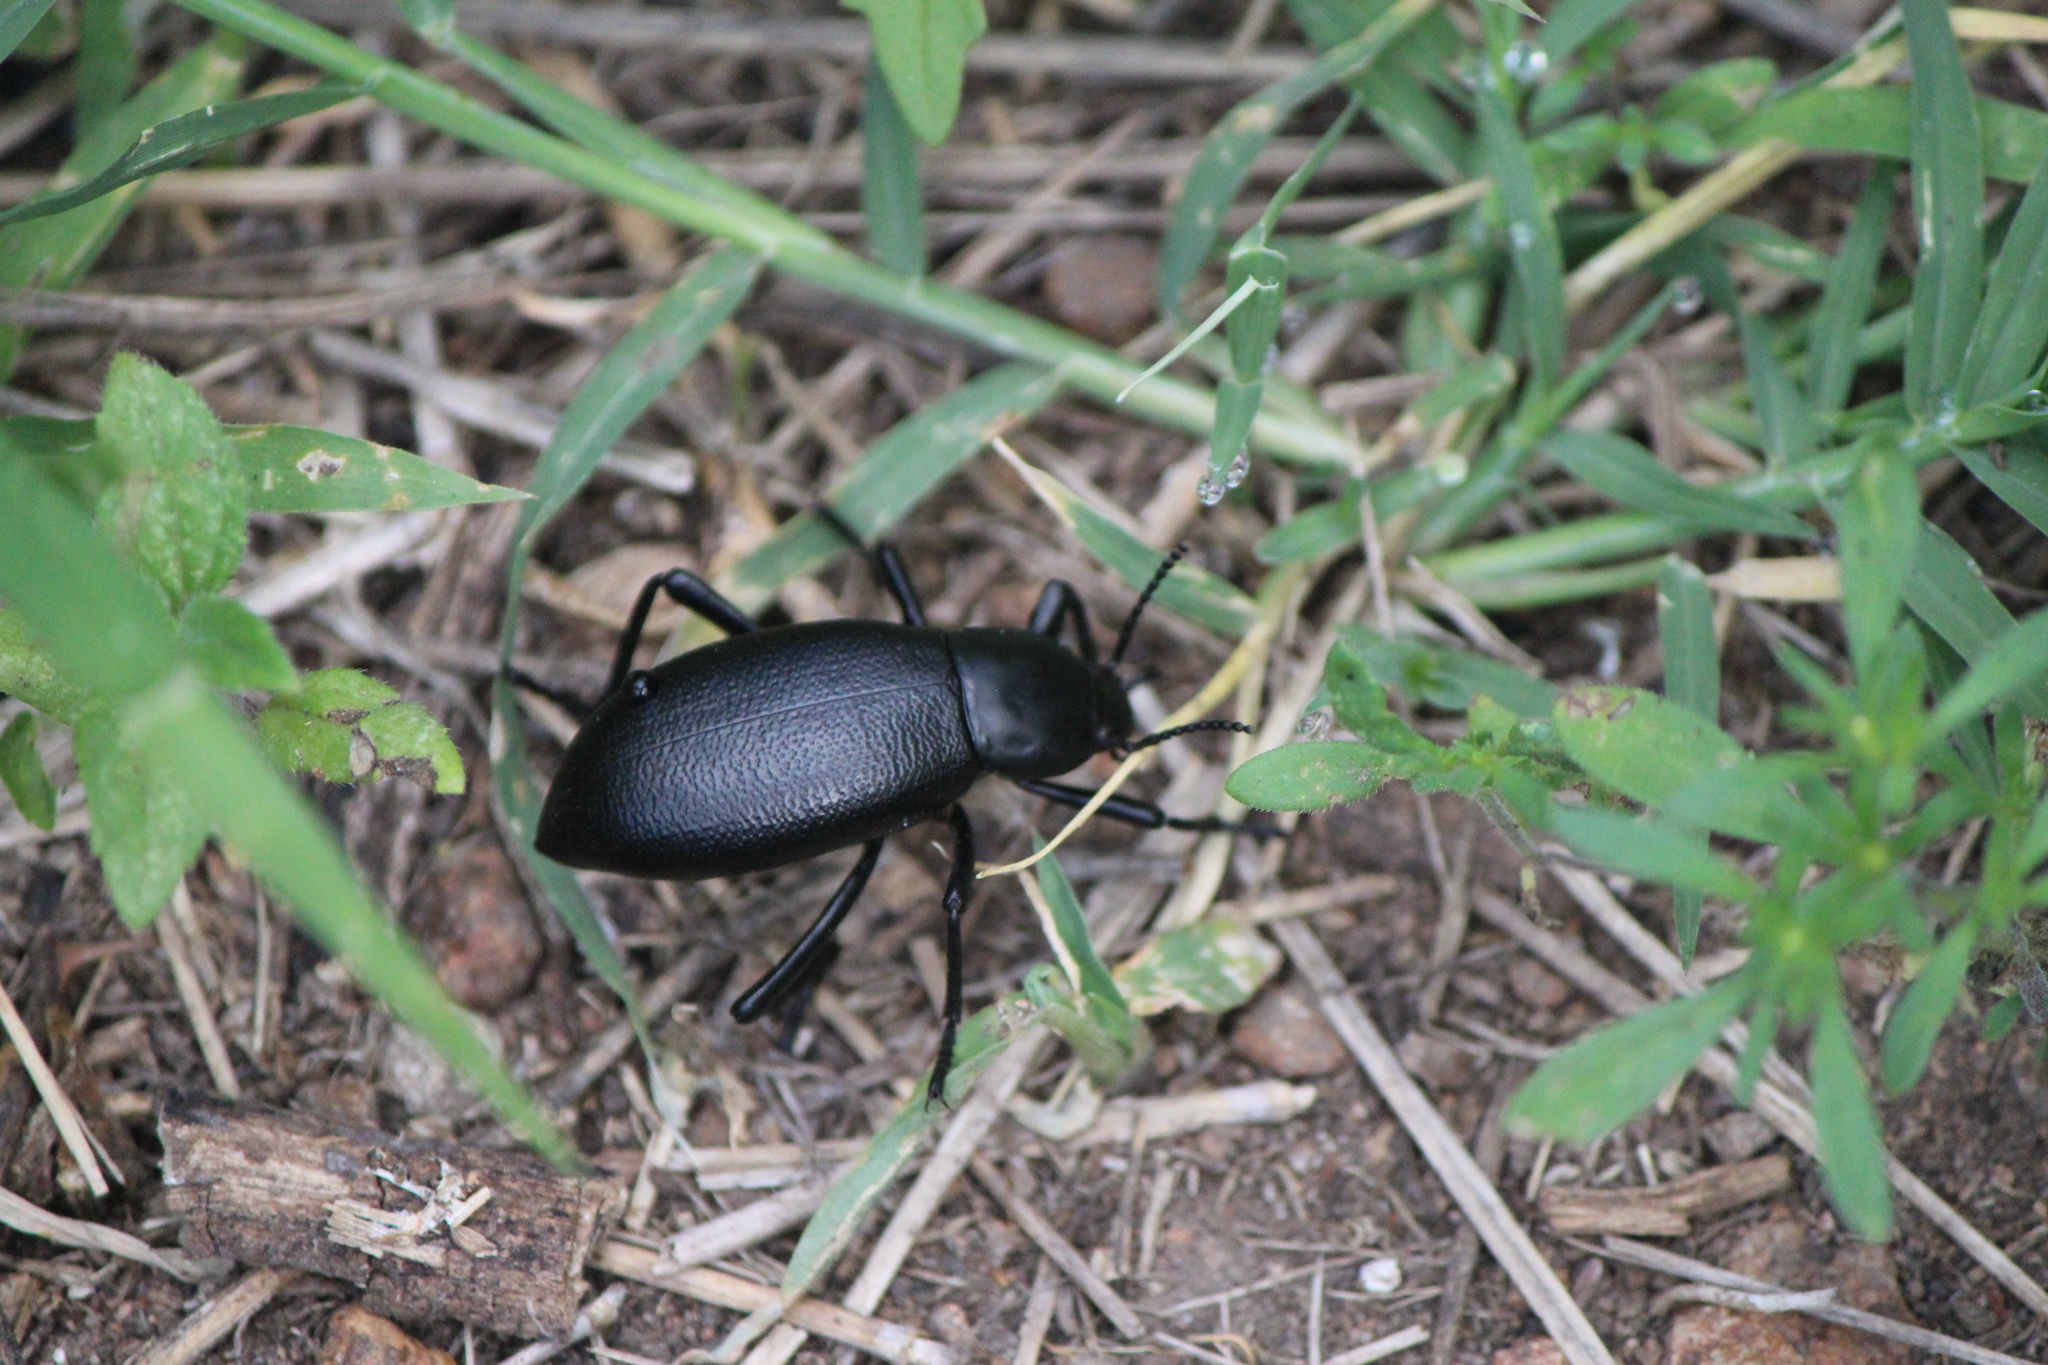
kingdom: Animalia
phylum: Arthropoda
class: Insecta
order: Coleoptera
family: Tenebrionidae
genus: Eleodes
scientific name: Eleodes glabricollis
